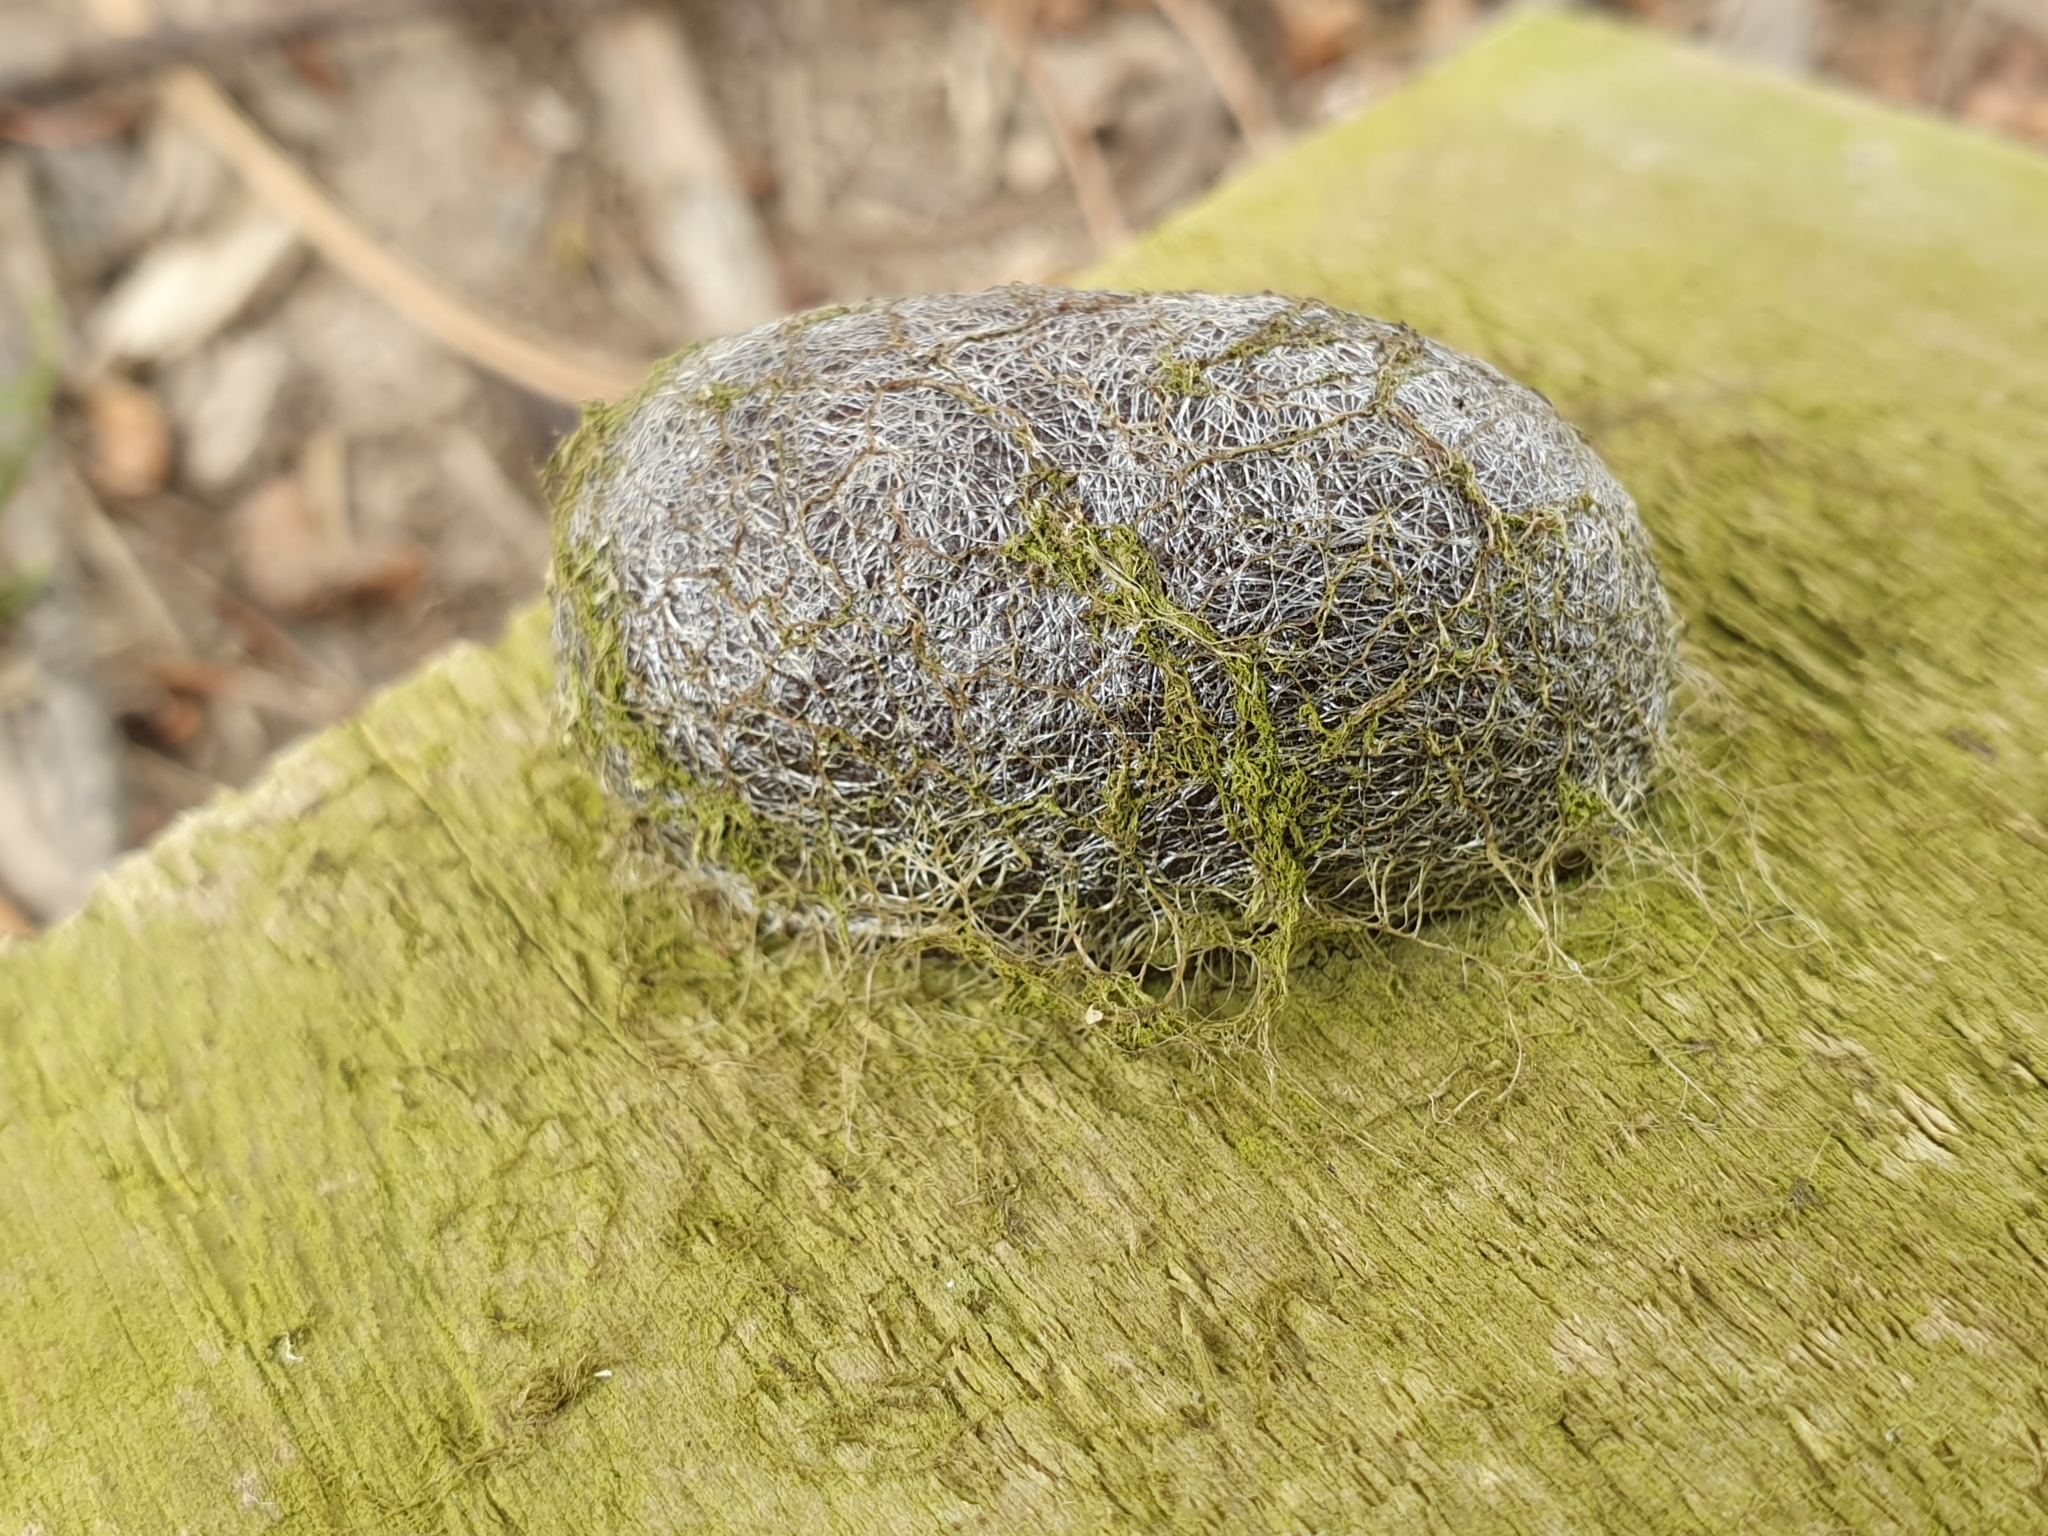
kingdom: Animalia
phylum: Arthropoda
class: Insecta
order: Lepidoptera
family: Saturniidae
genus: Opodiphthera
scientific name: Opodiphthera
